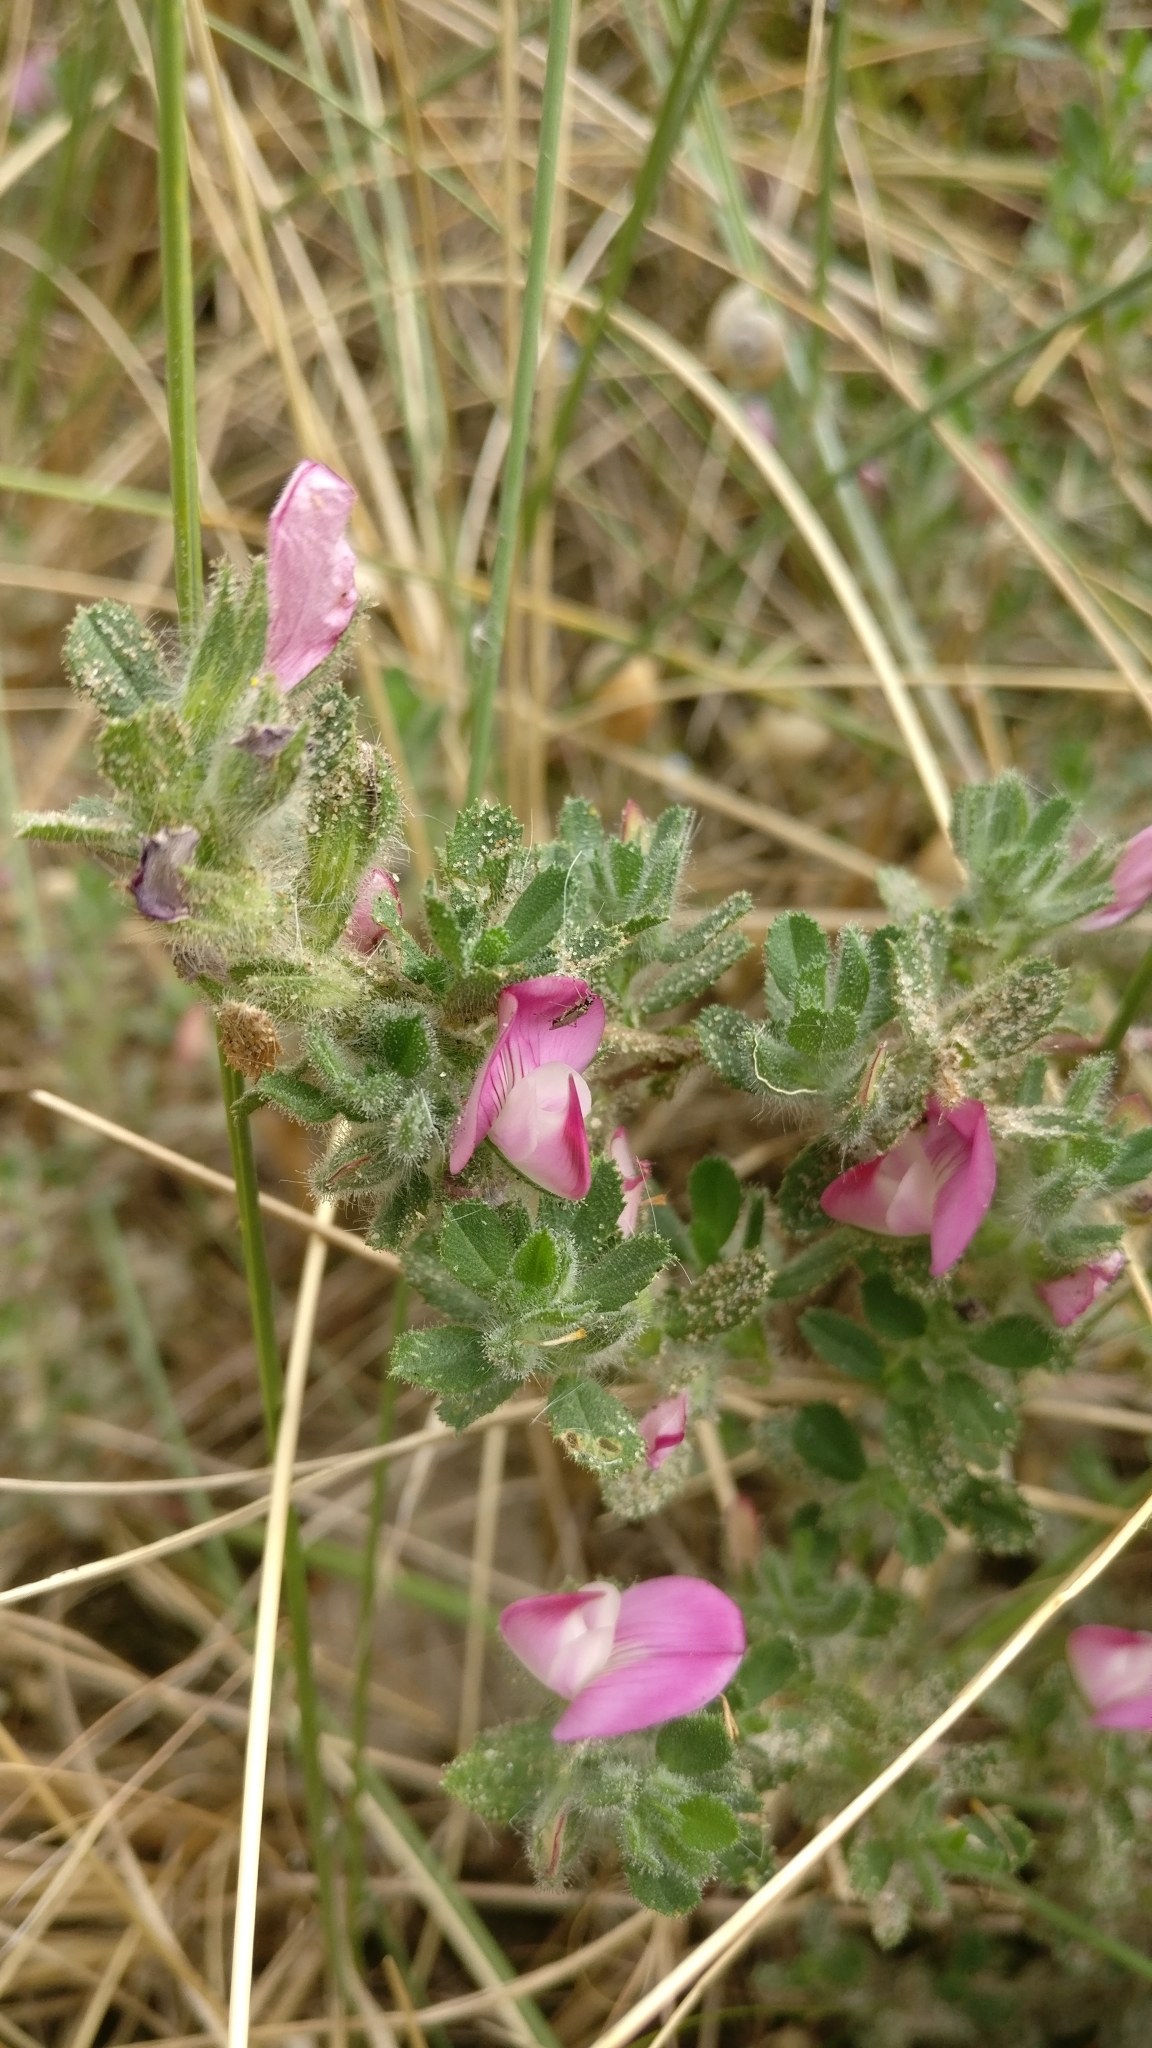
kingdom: Plantae
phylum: Tracheophyta
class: Magnoliopsida
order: Fabales
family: Fabaceae
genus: Ononis
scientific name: Ononis spinosa
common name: Spiny restharrow
